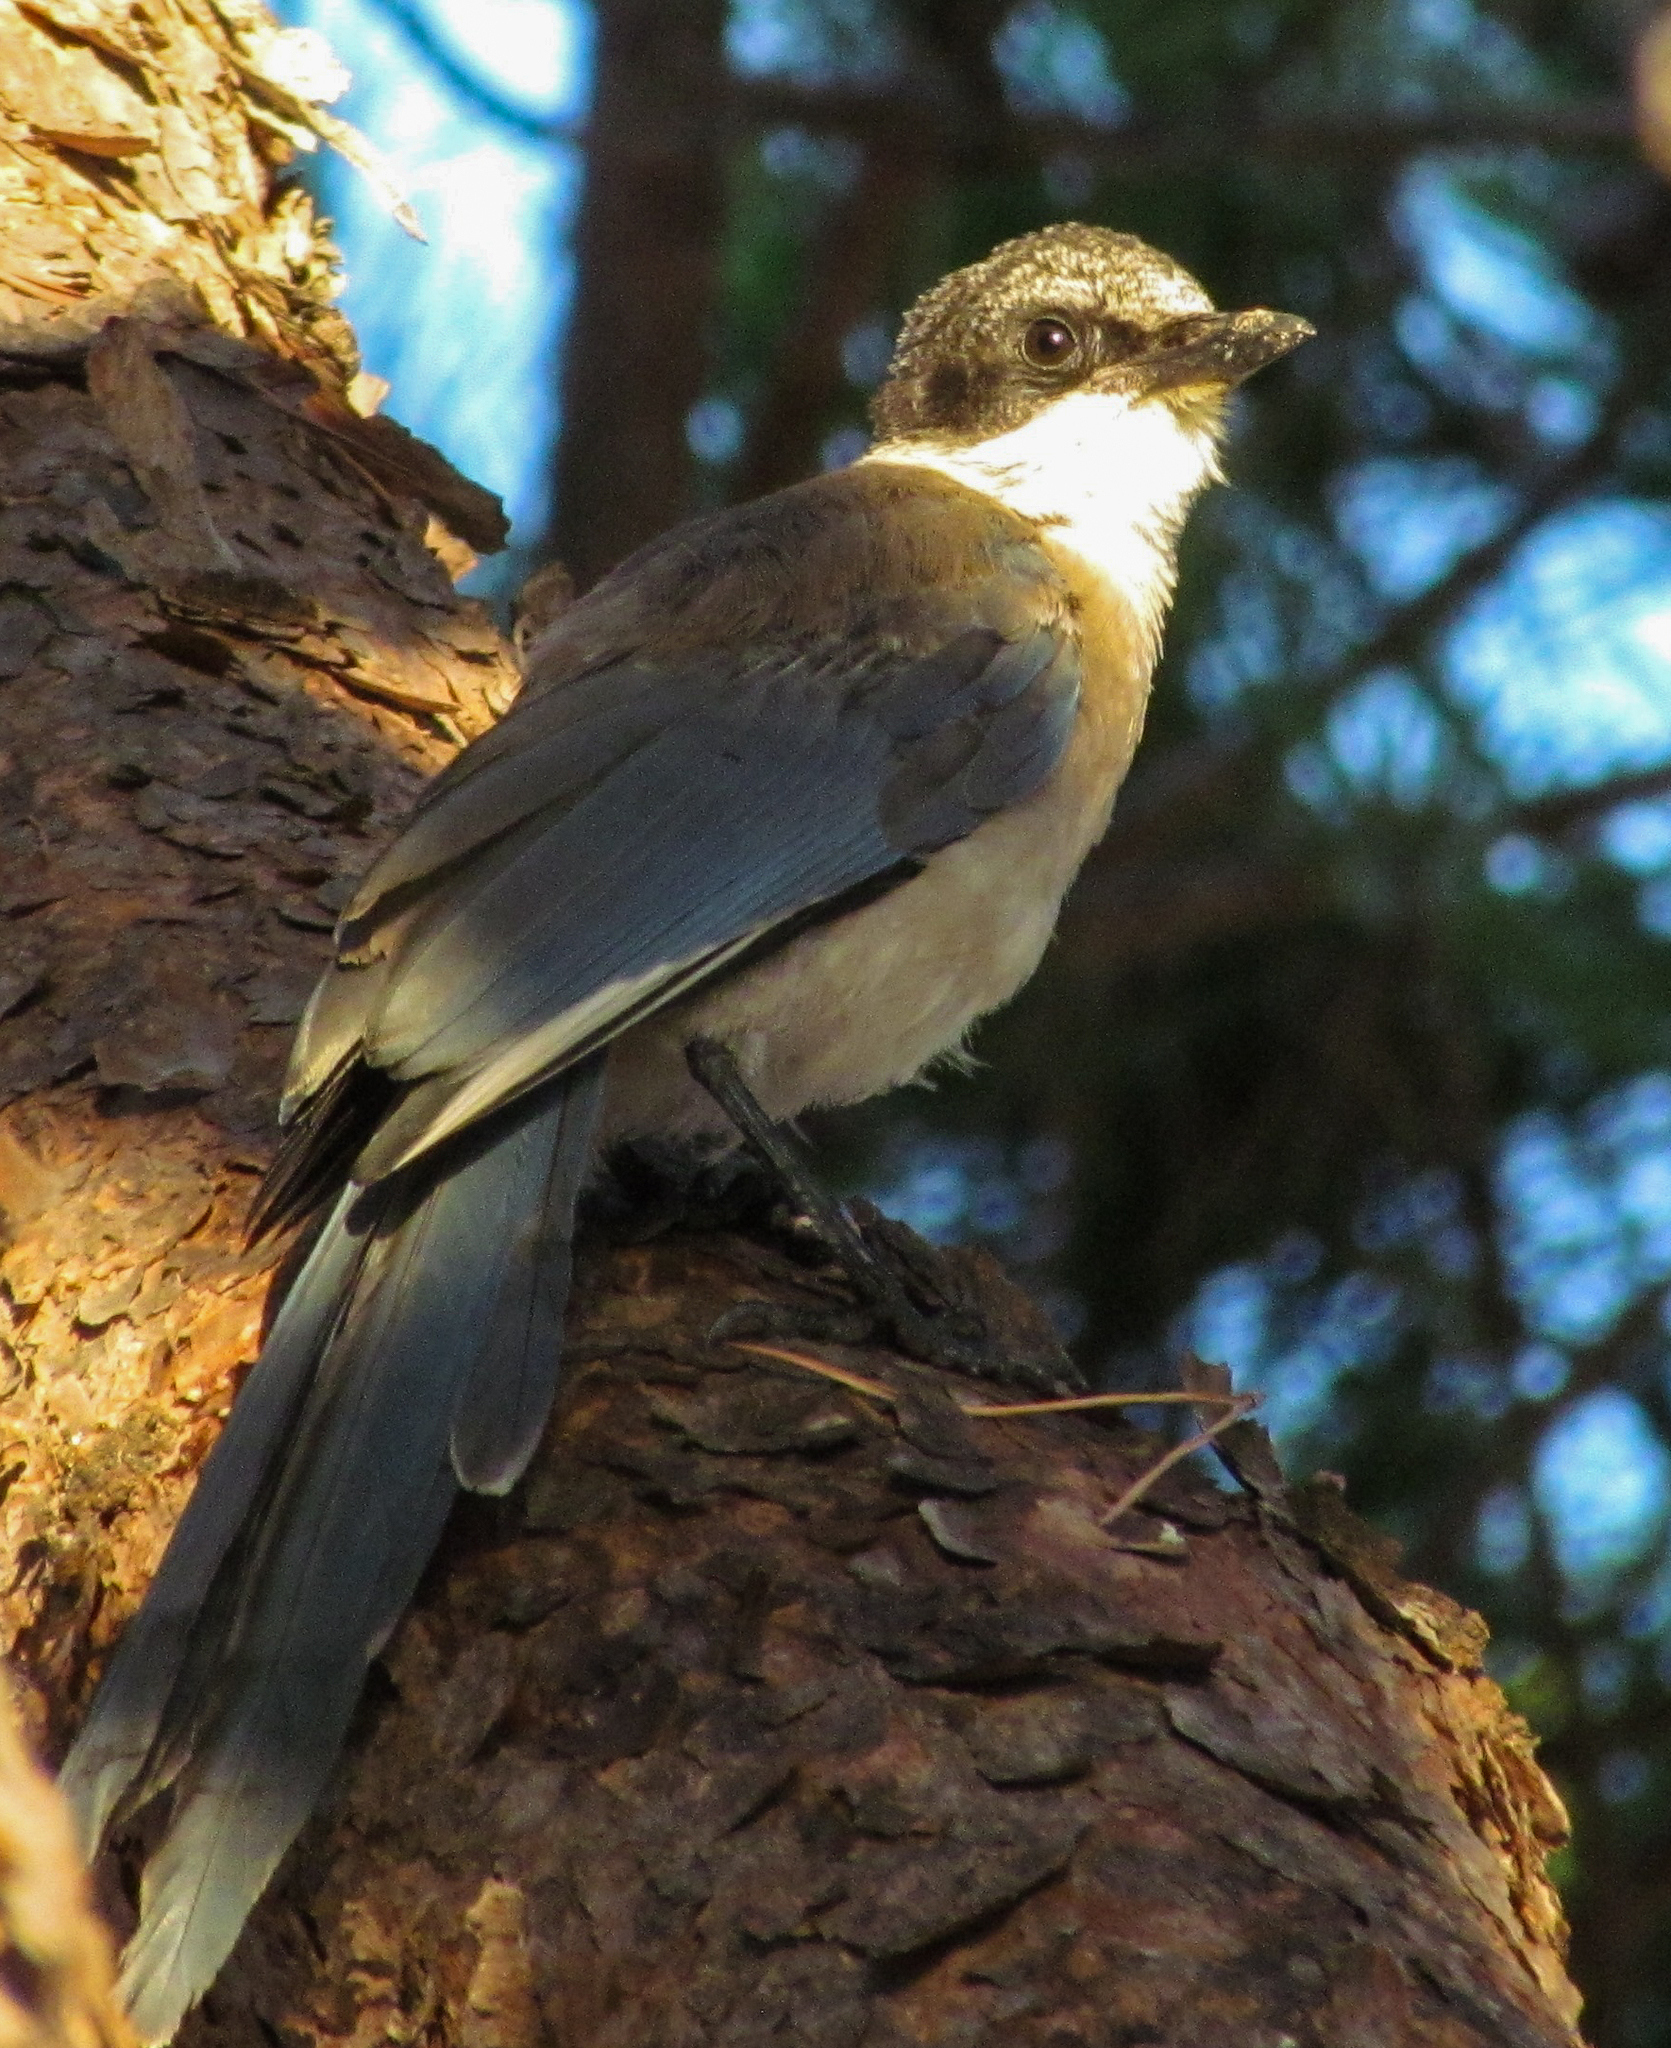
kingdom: Animalia
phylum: Chordata
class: Aves
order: Passeriformes
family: Corvidae
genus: Cyanopica
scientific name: Cyanopica cooki
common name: Iberian magpie
